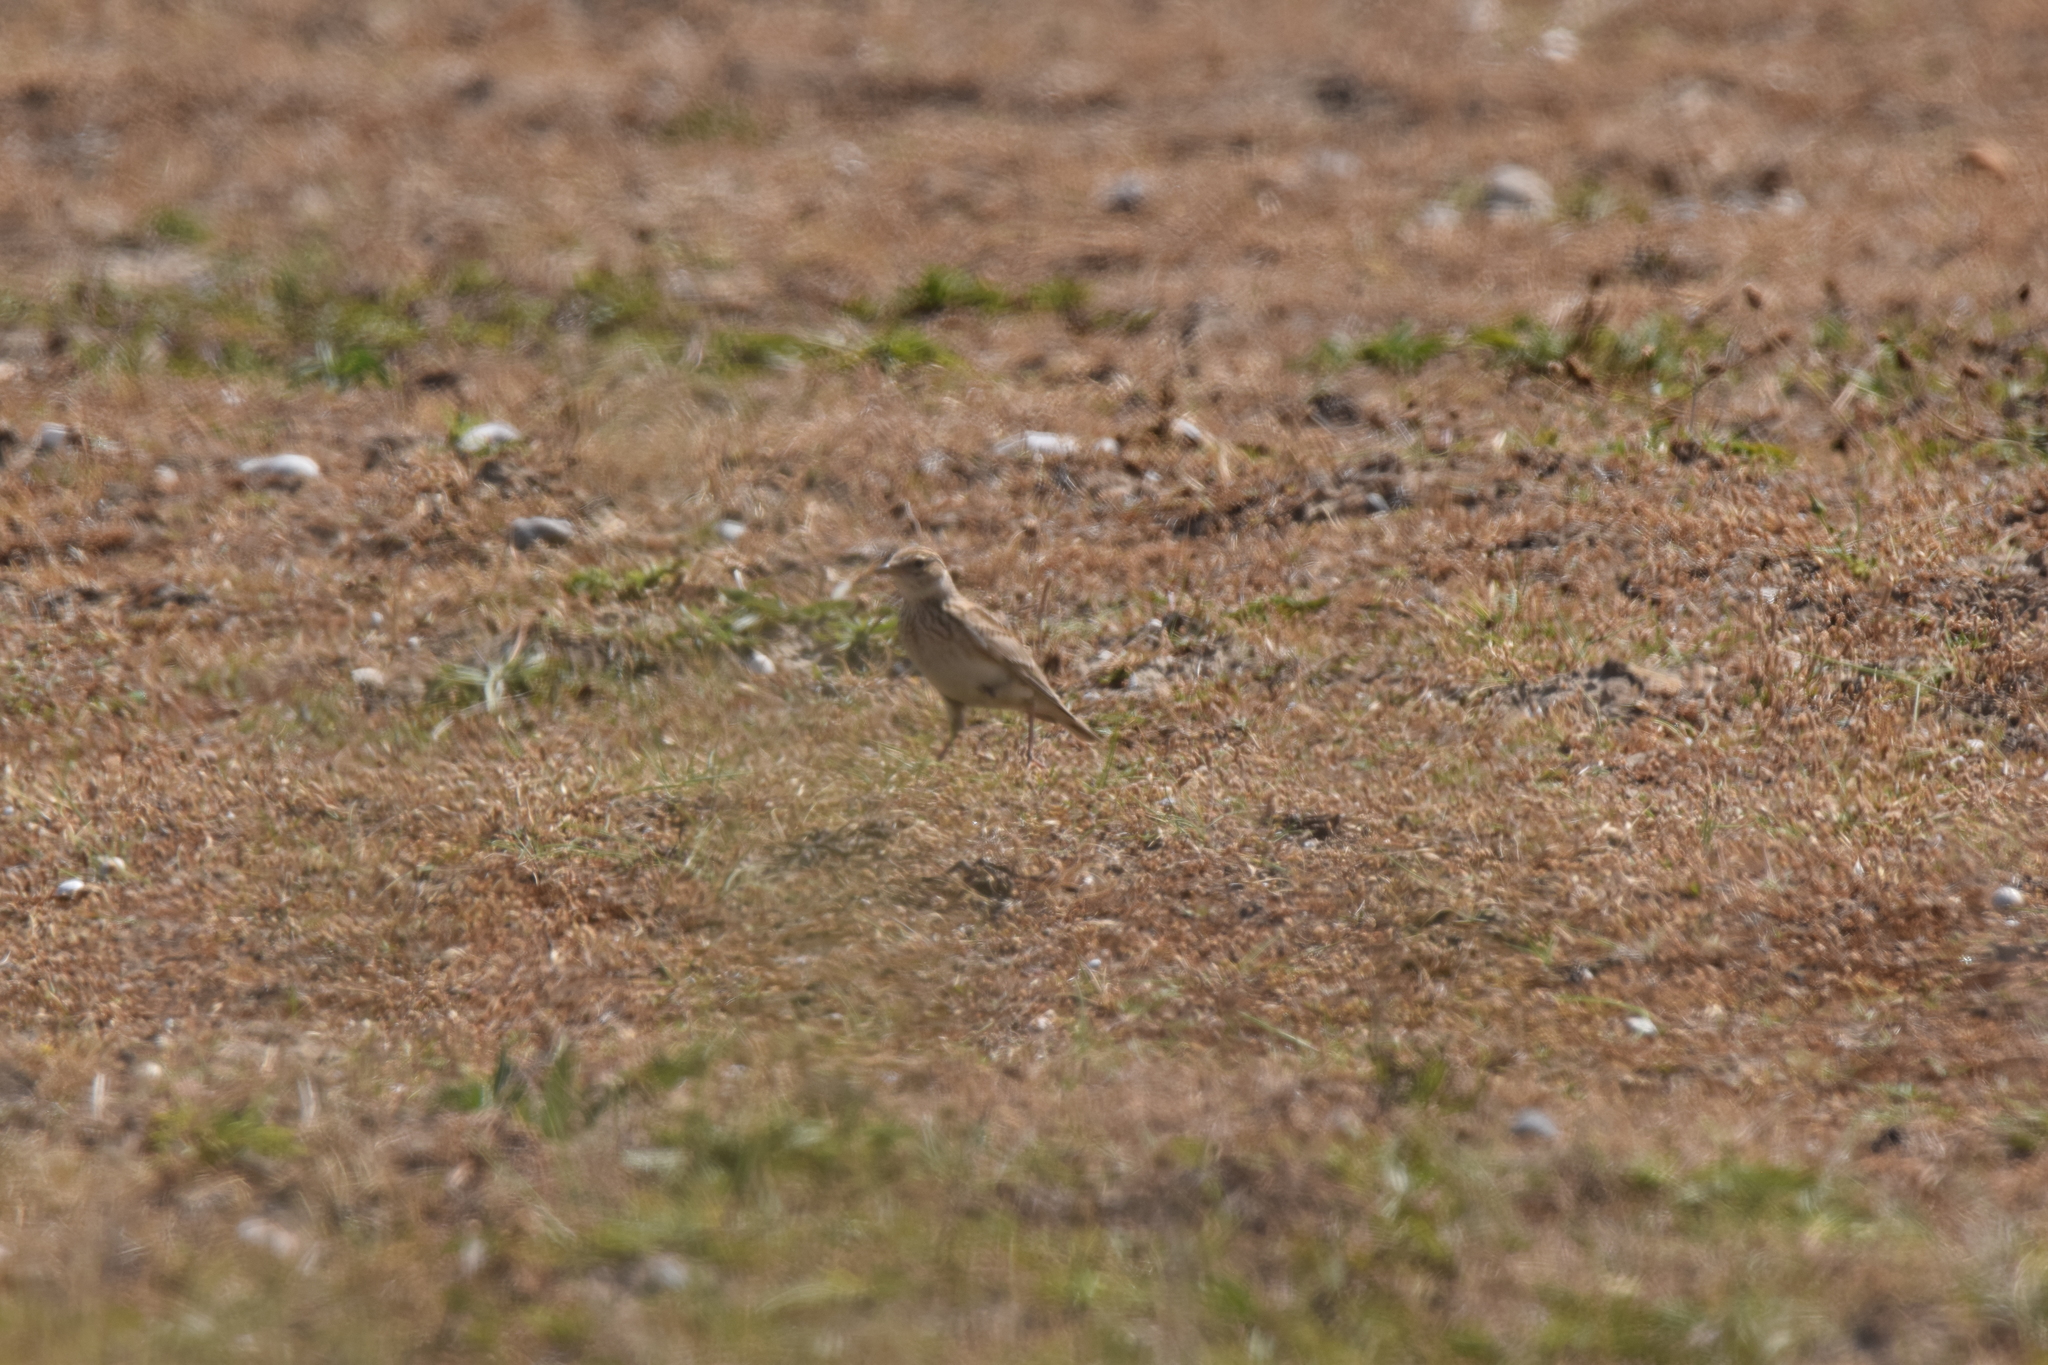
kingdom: Animalia
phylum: Chordata
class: Aves
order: Passeriformes
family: Alaudidae
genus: Alauda
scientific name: Alauda arvensis
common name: Eurasian skylark
